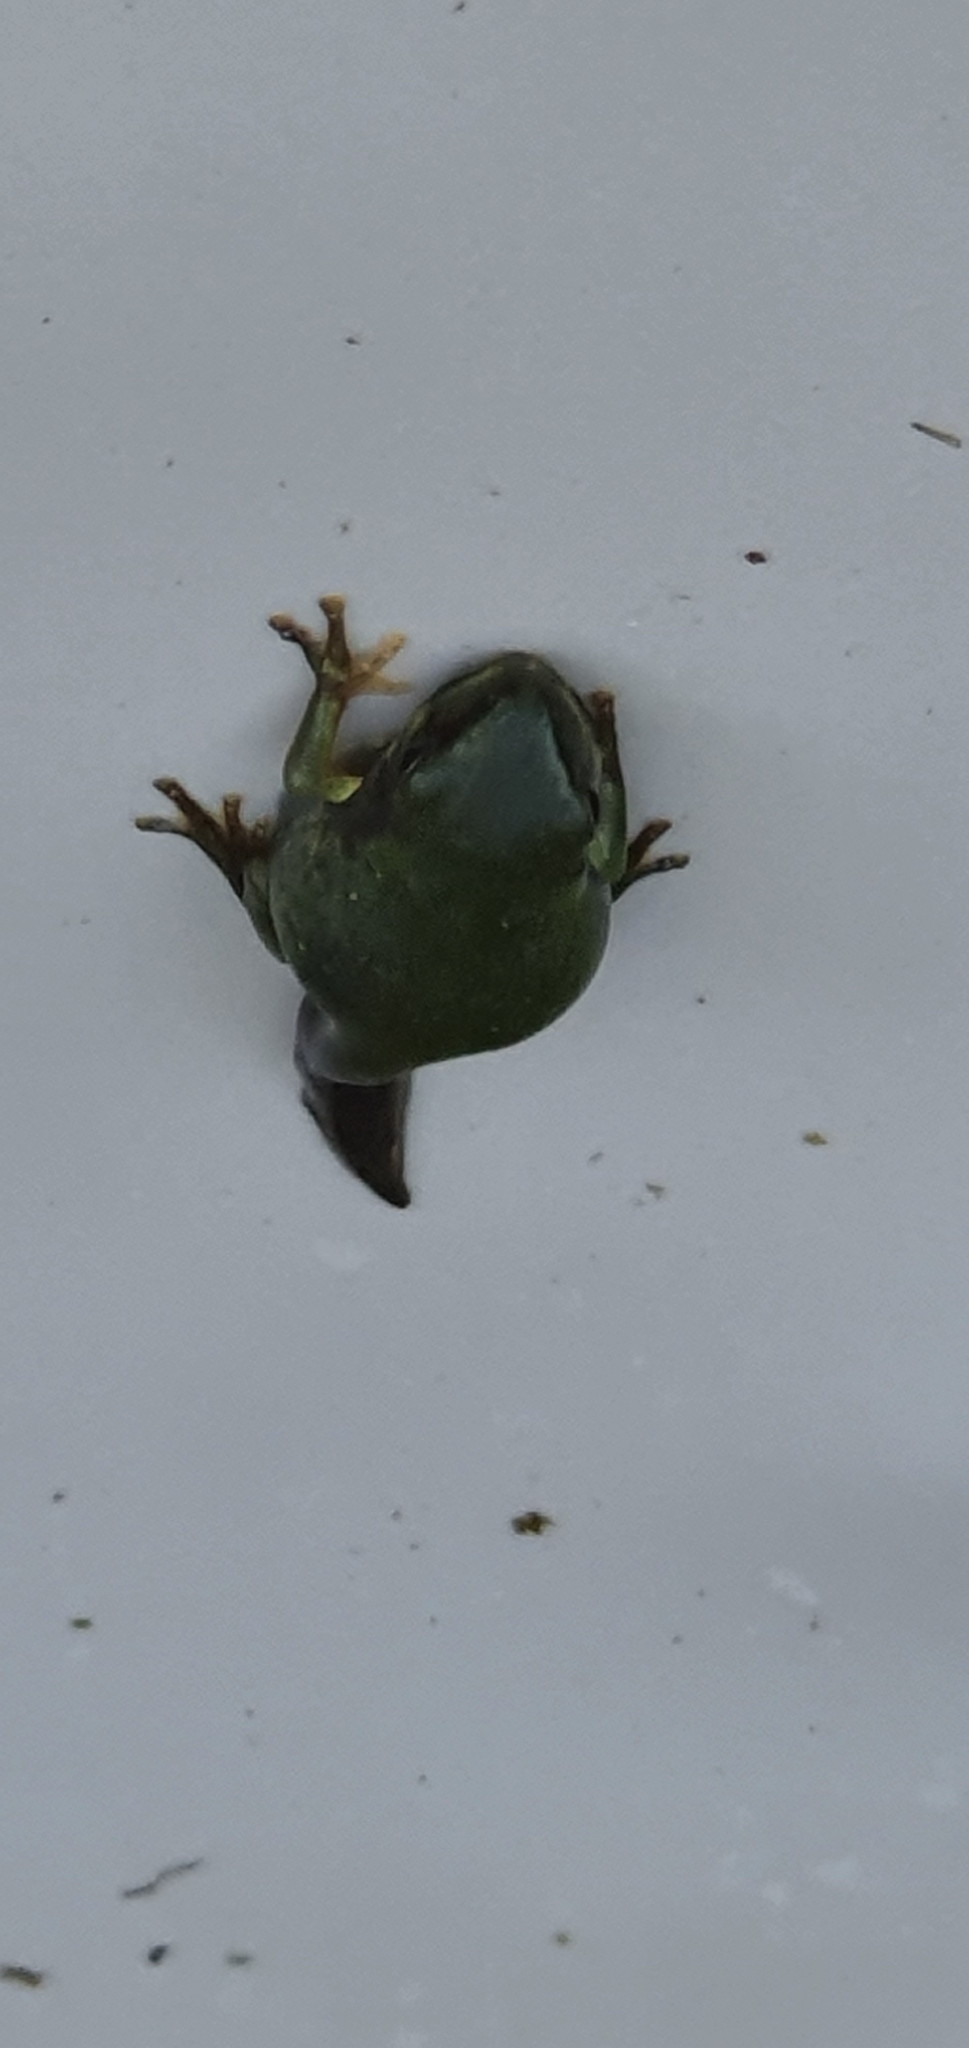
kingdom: Animalia
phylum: Chordata
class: Amphibia
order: Anura
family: Pelodryadidae
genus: Ranoidea
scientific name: Ranoidea caerulea
